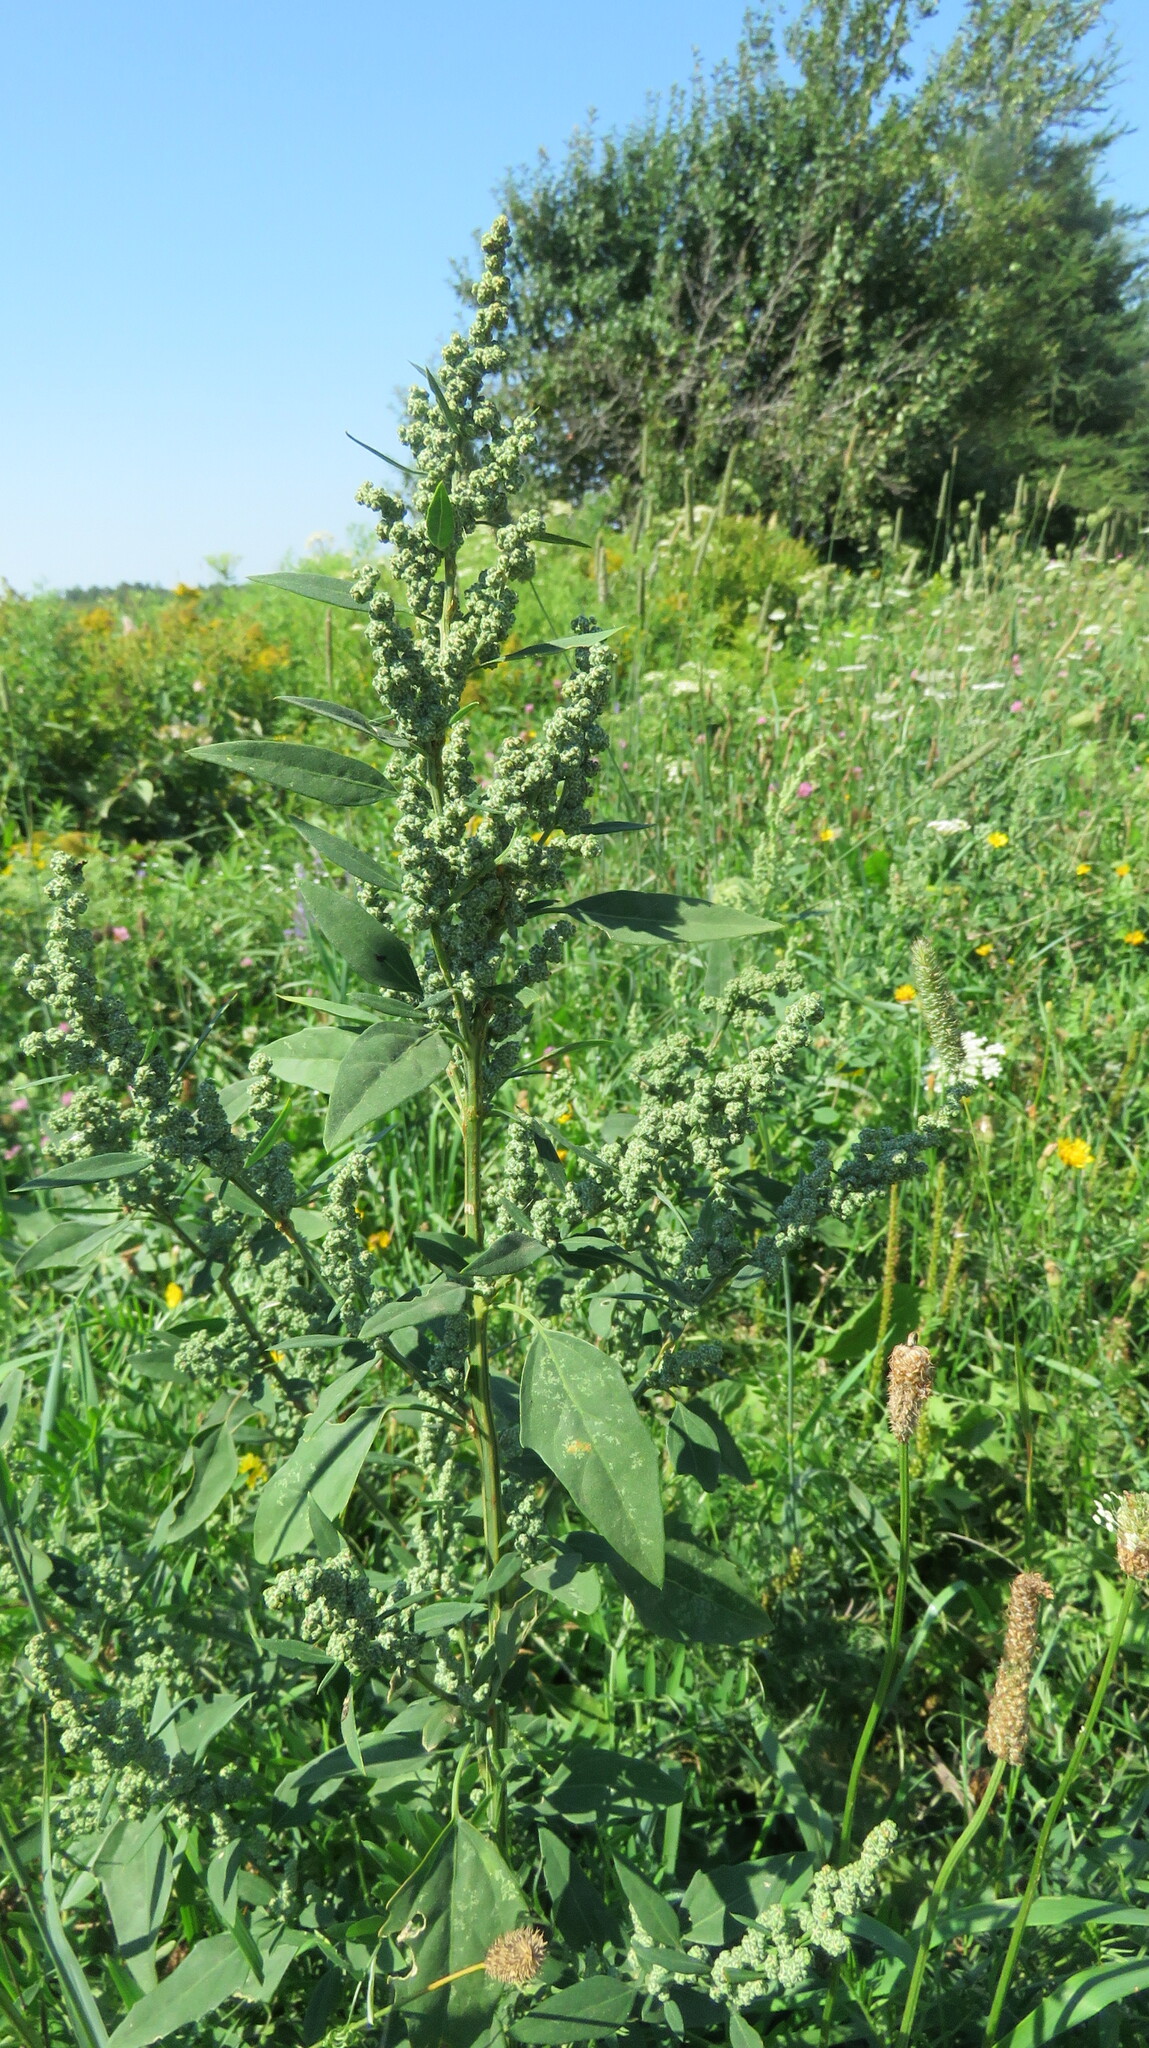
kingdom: Plantae
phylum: Tracheophyta
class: Magnoliopsida
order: Caryophyllales
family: Amaranthaceae
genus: Chenopodium
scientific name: Chenopodium album
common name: Fat-hen
